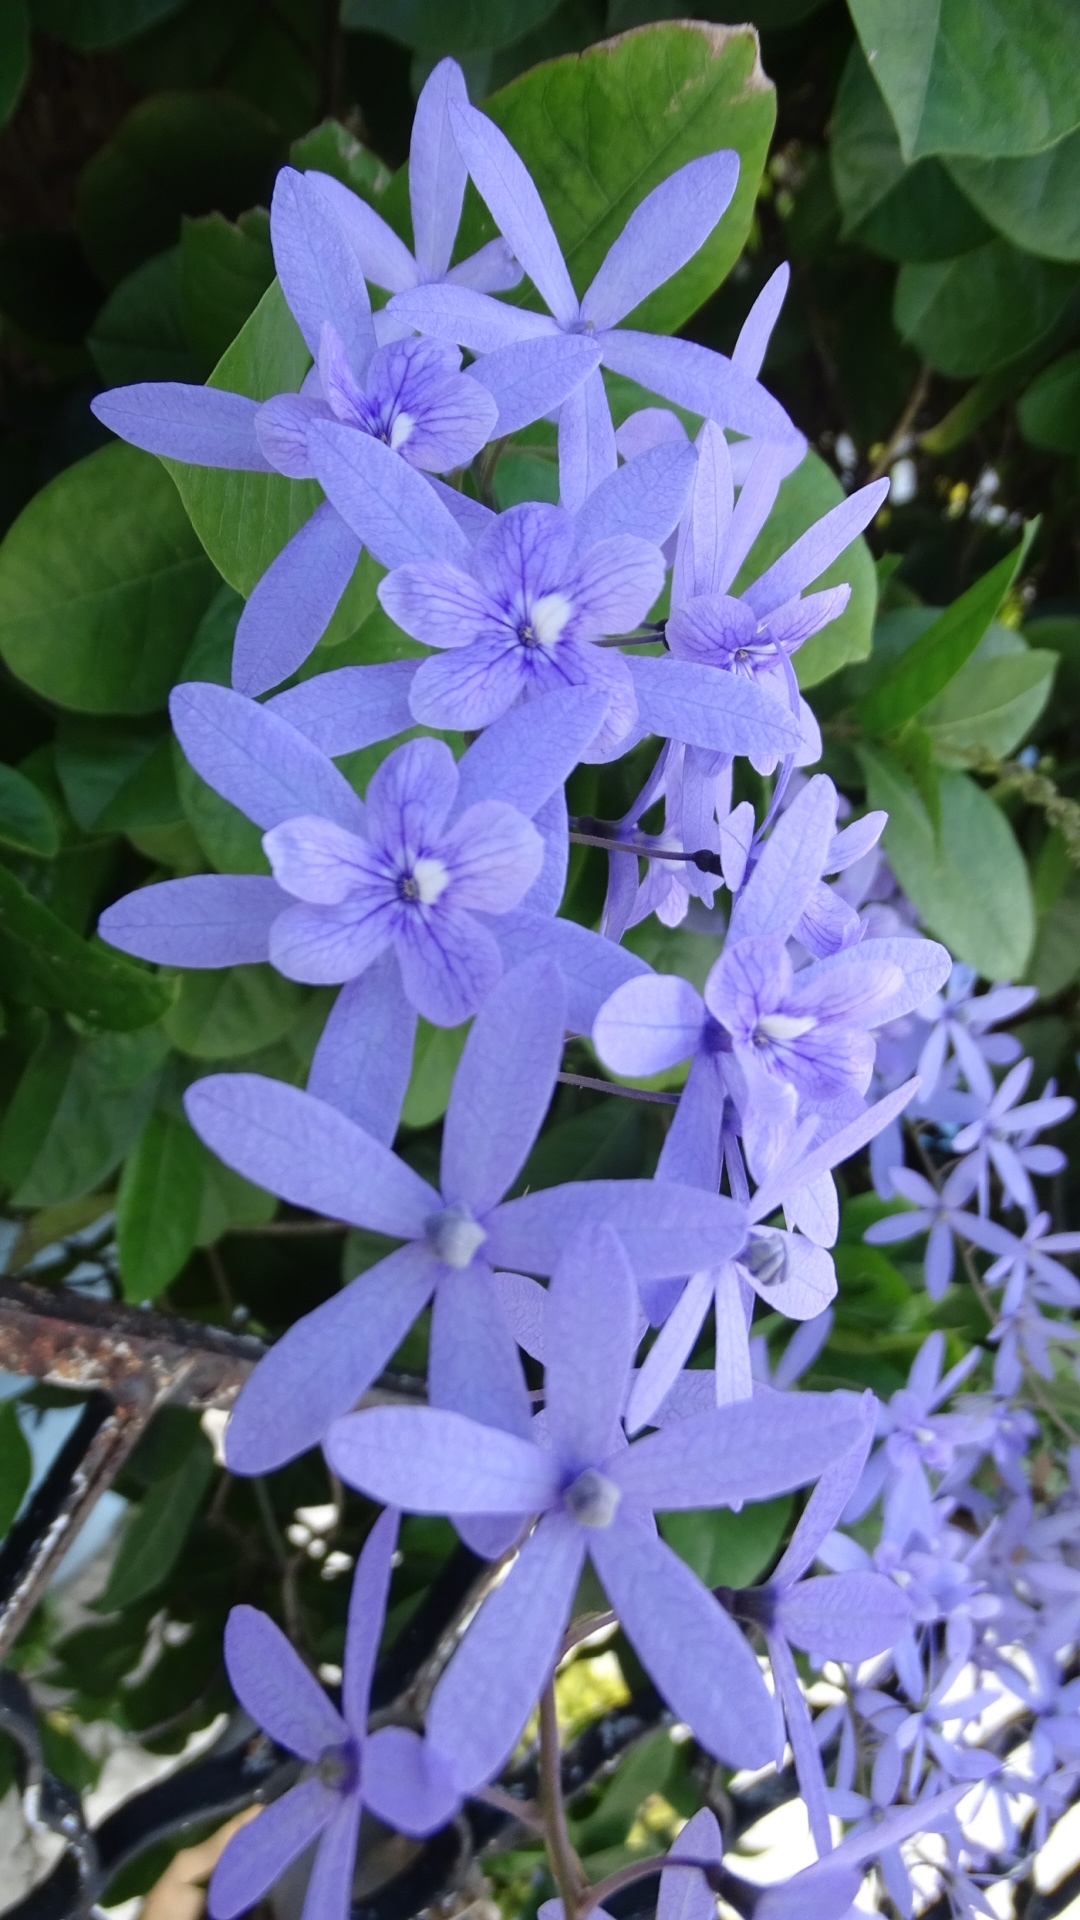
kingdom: Plantae
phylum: Tracheophyta
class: Magnoliopsida
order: Lamiales
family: Verbenaceae
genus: Petrea
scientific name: Petrea volubilis
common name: Queen's-wreath
